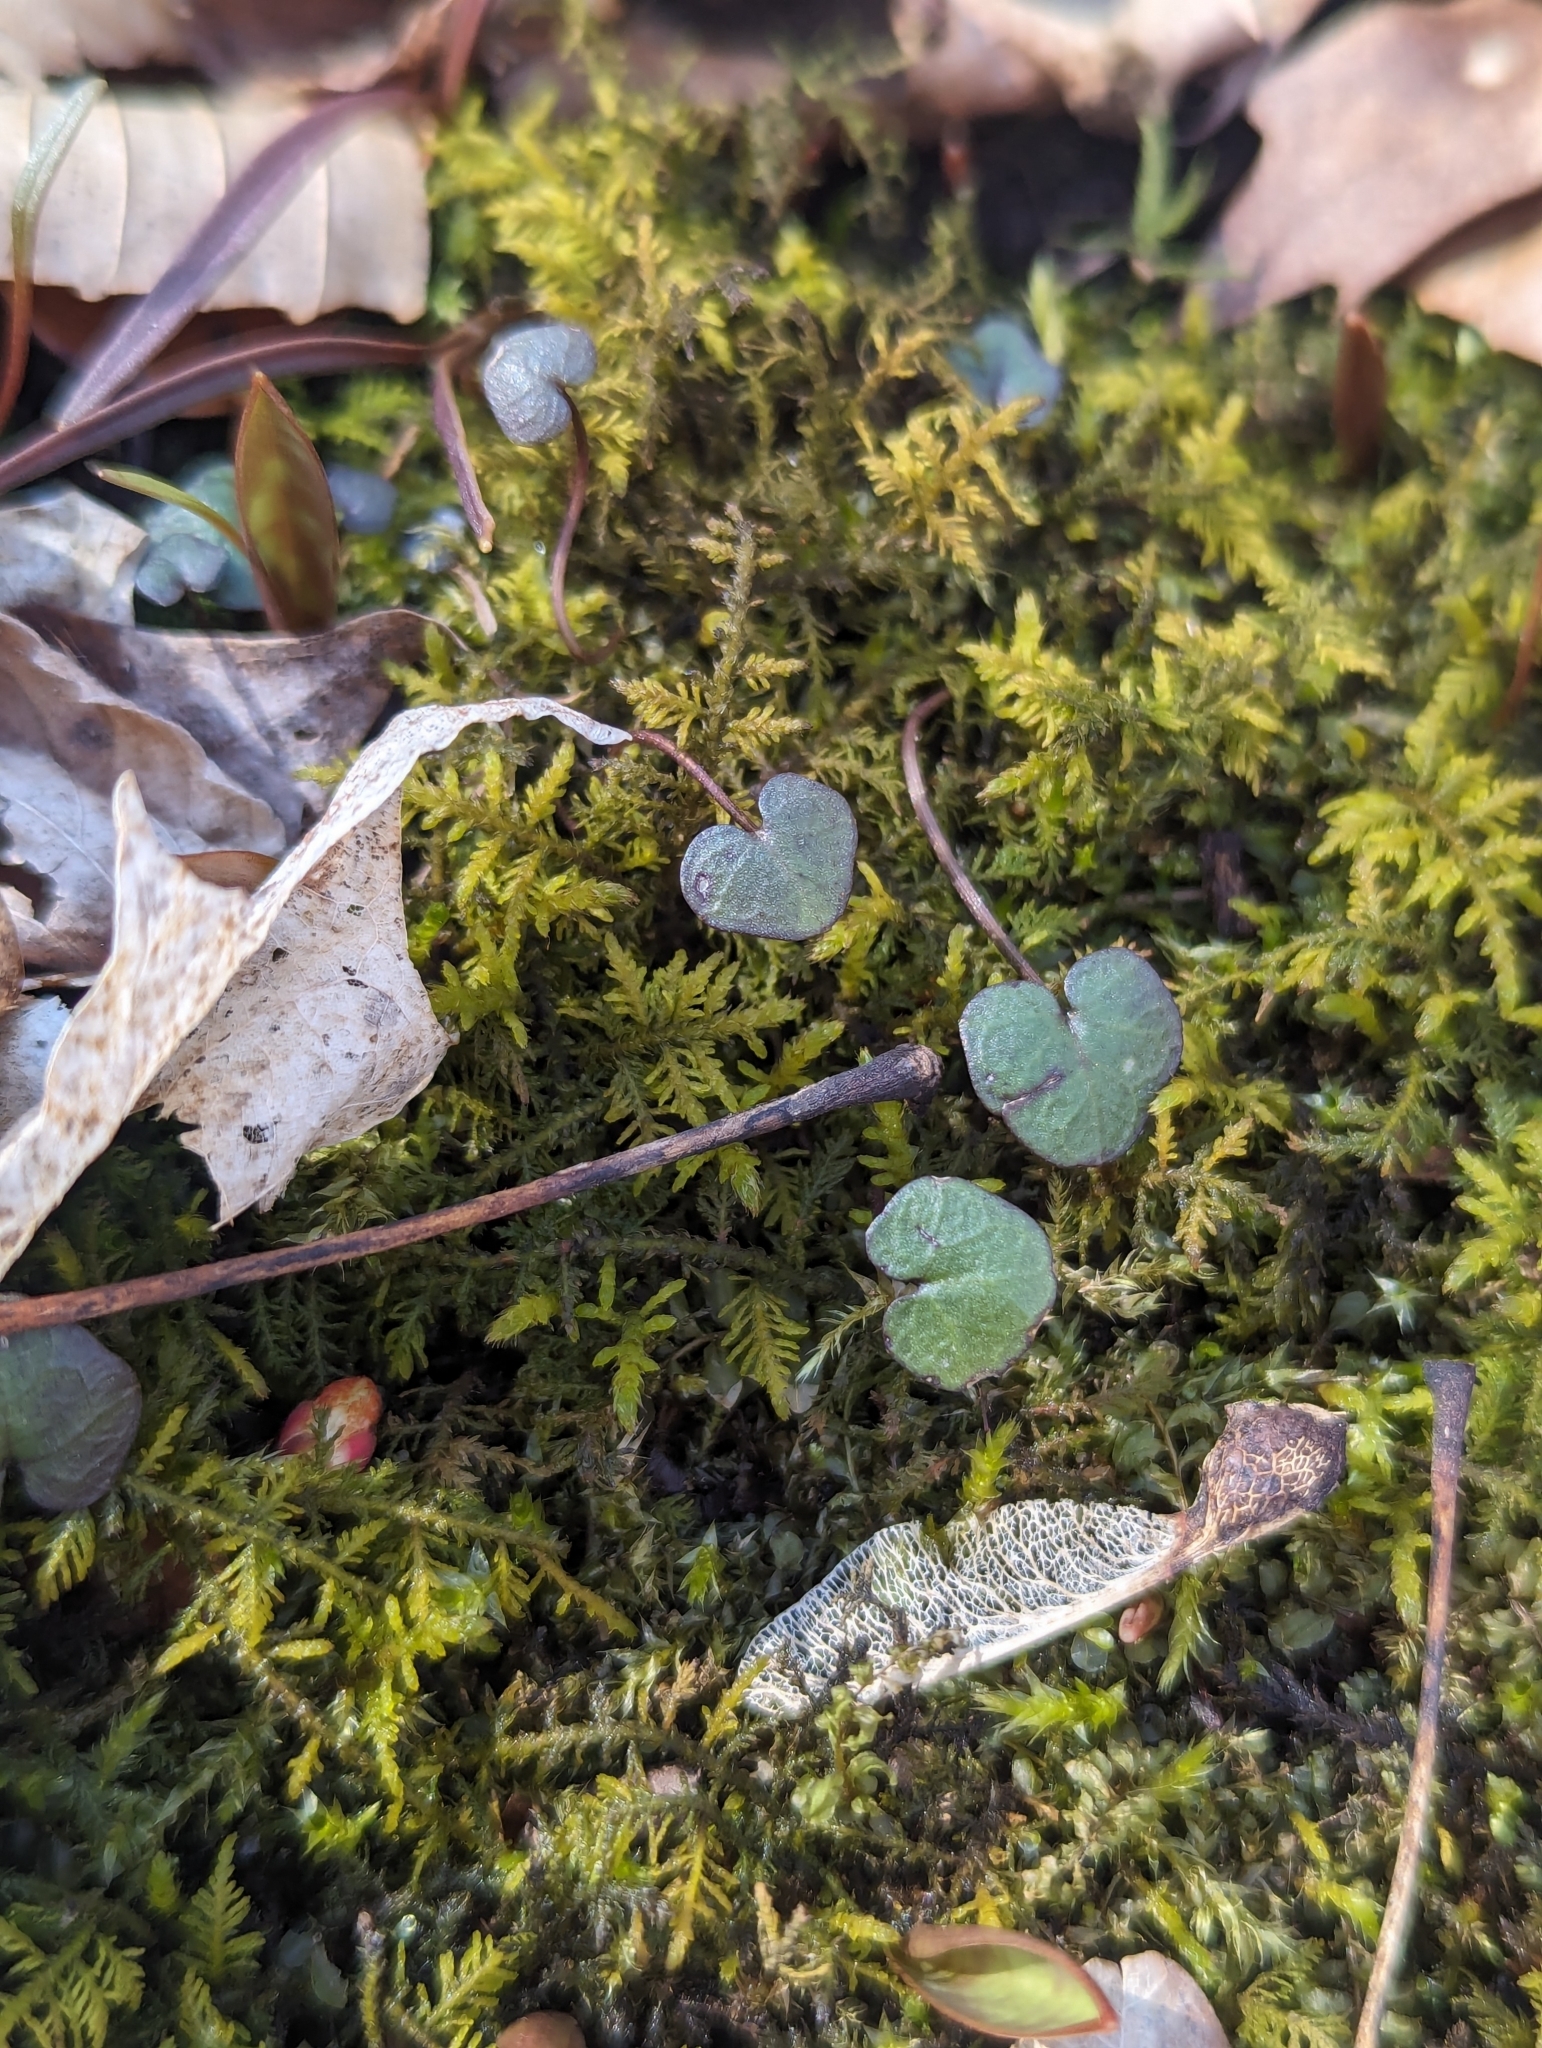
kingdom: Plantae
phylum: Tracheophyta
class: Magnoliopsida
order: Brassicales
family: Brassicaceae
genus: Cardamine
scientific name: Cardamine douglassii
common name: Purple cress
